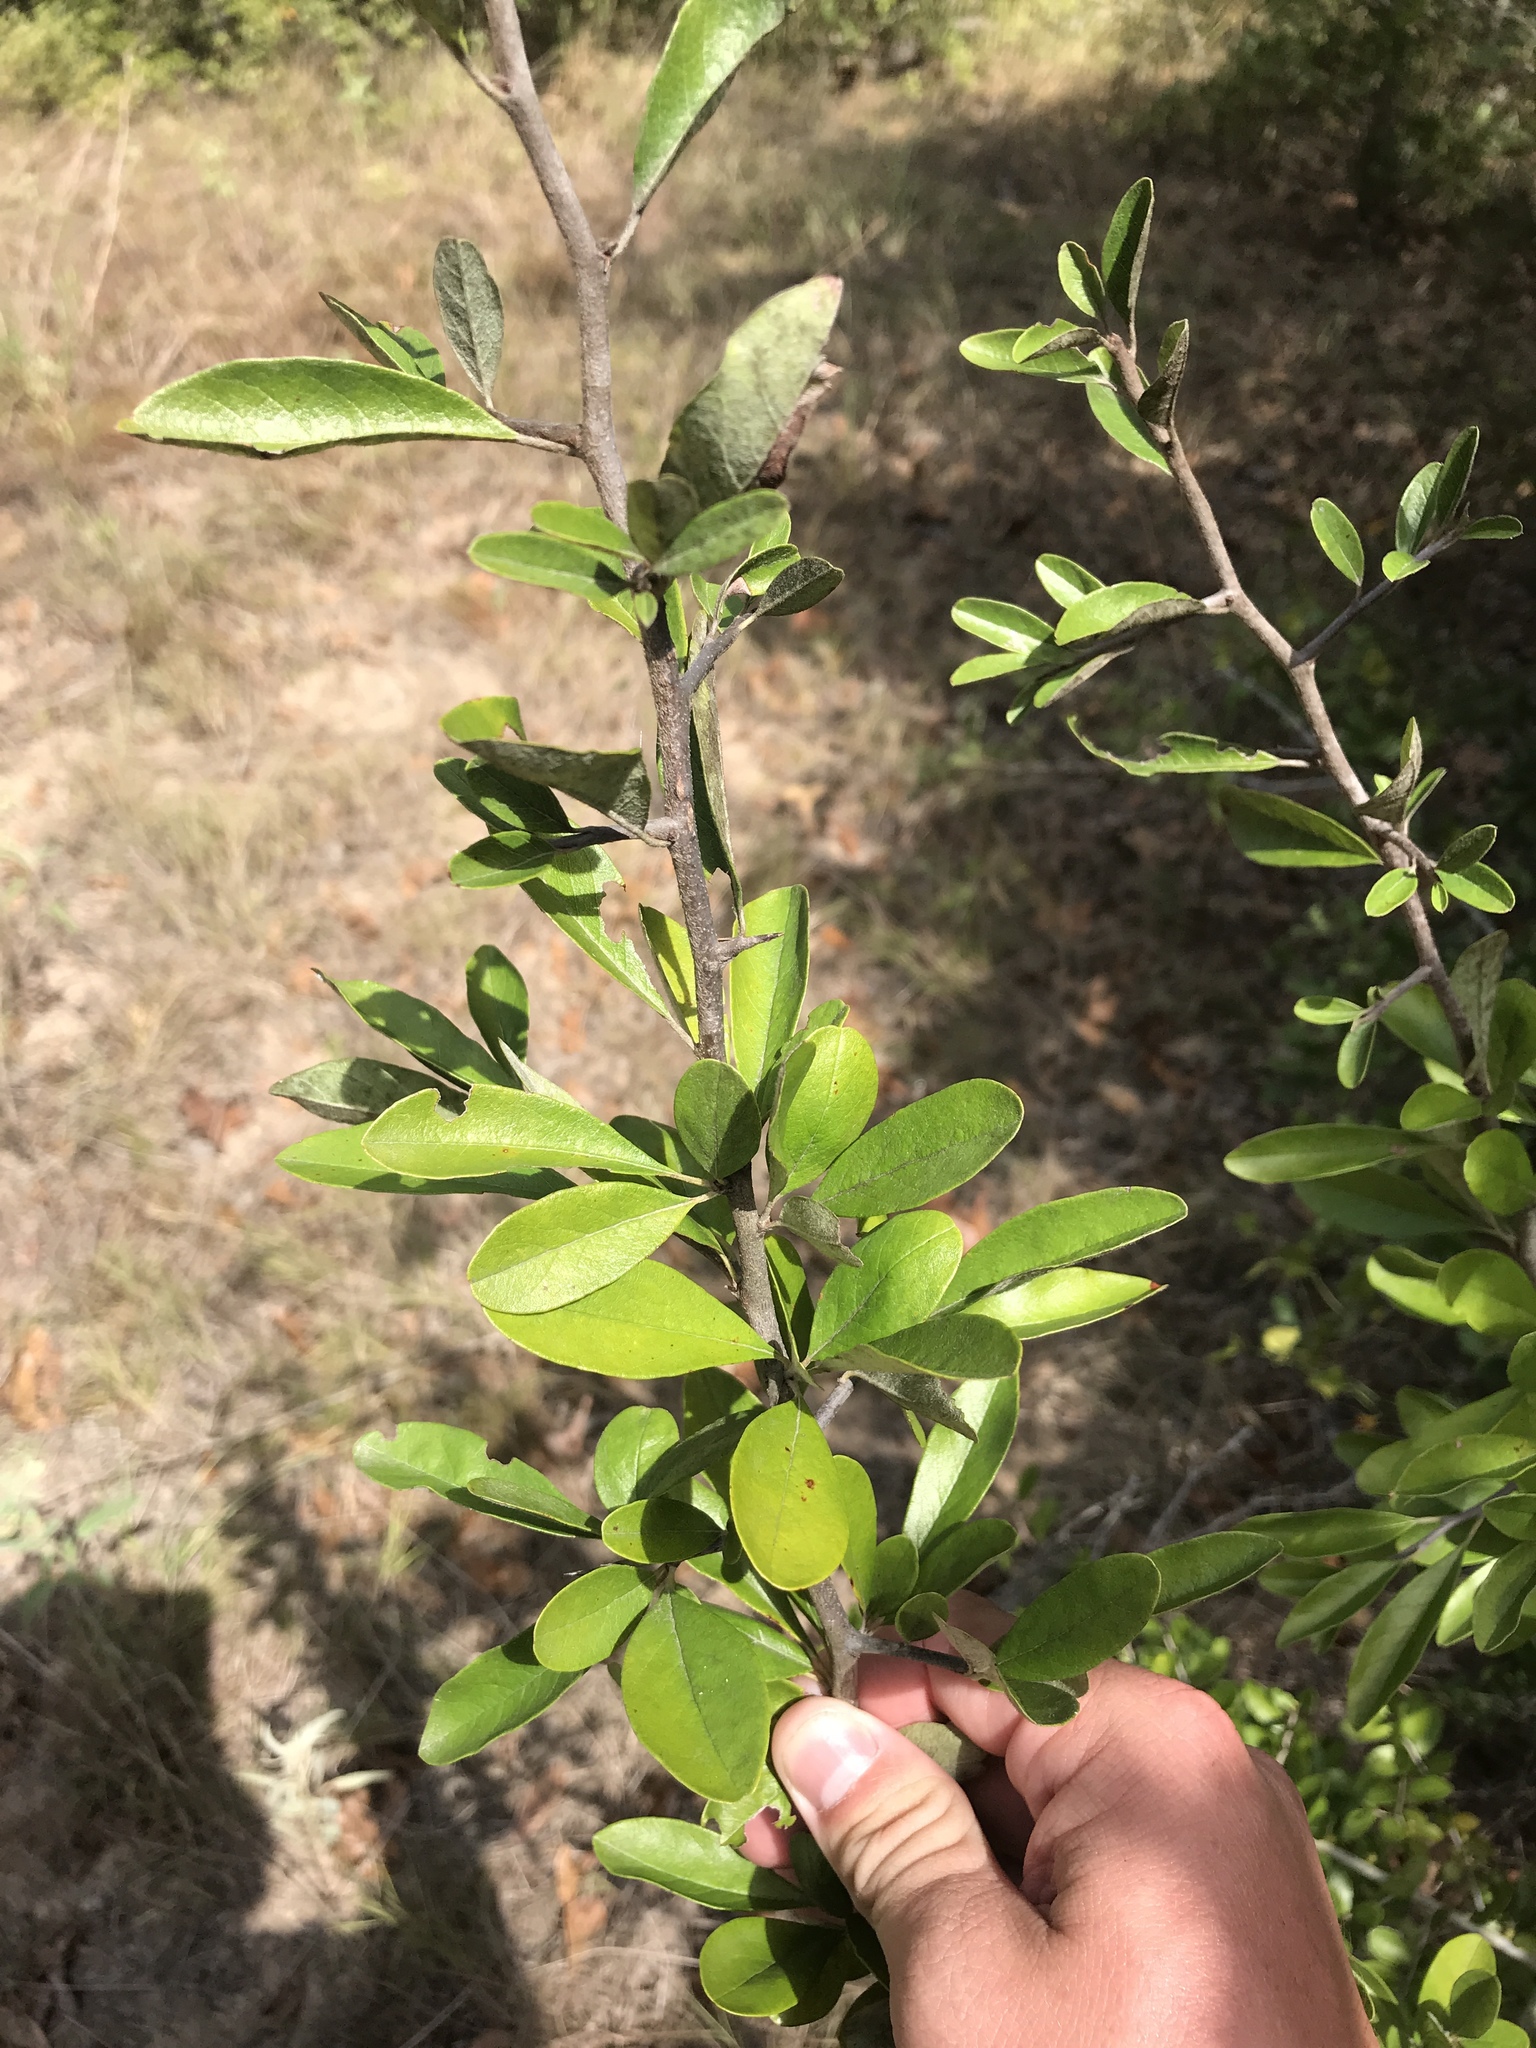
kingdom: Plantae
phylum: Tracheophyta
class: Magnoliopsida
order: Ericales
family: Sapotaceae
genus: Sideroxylon
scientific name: Sideroxylon lanuginosum
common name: Chittamwood
